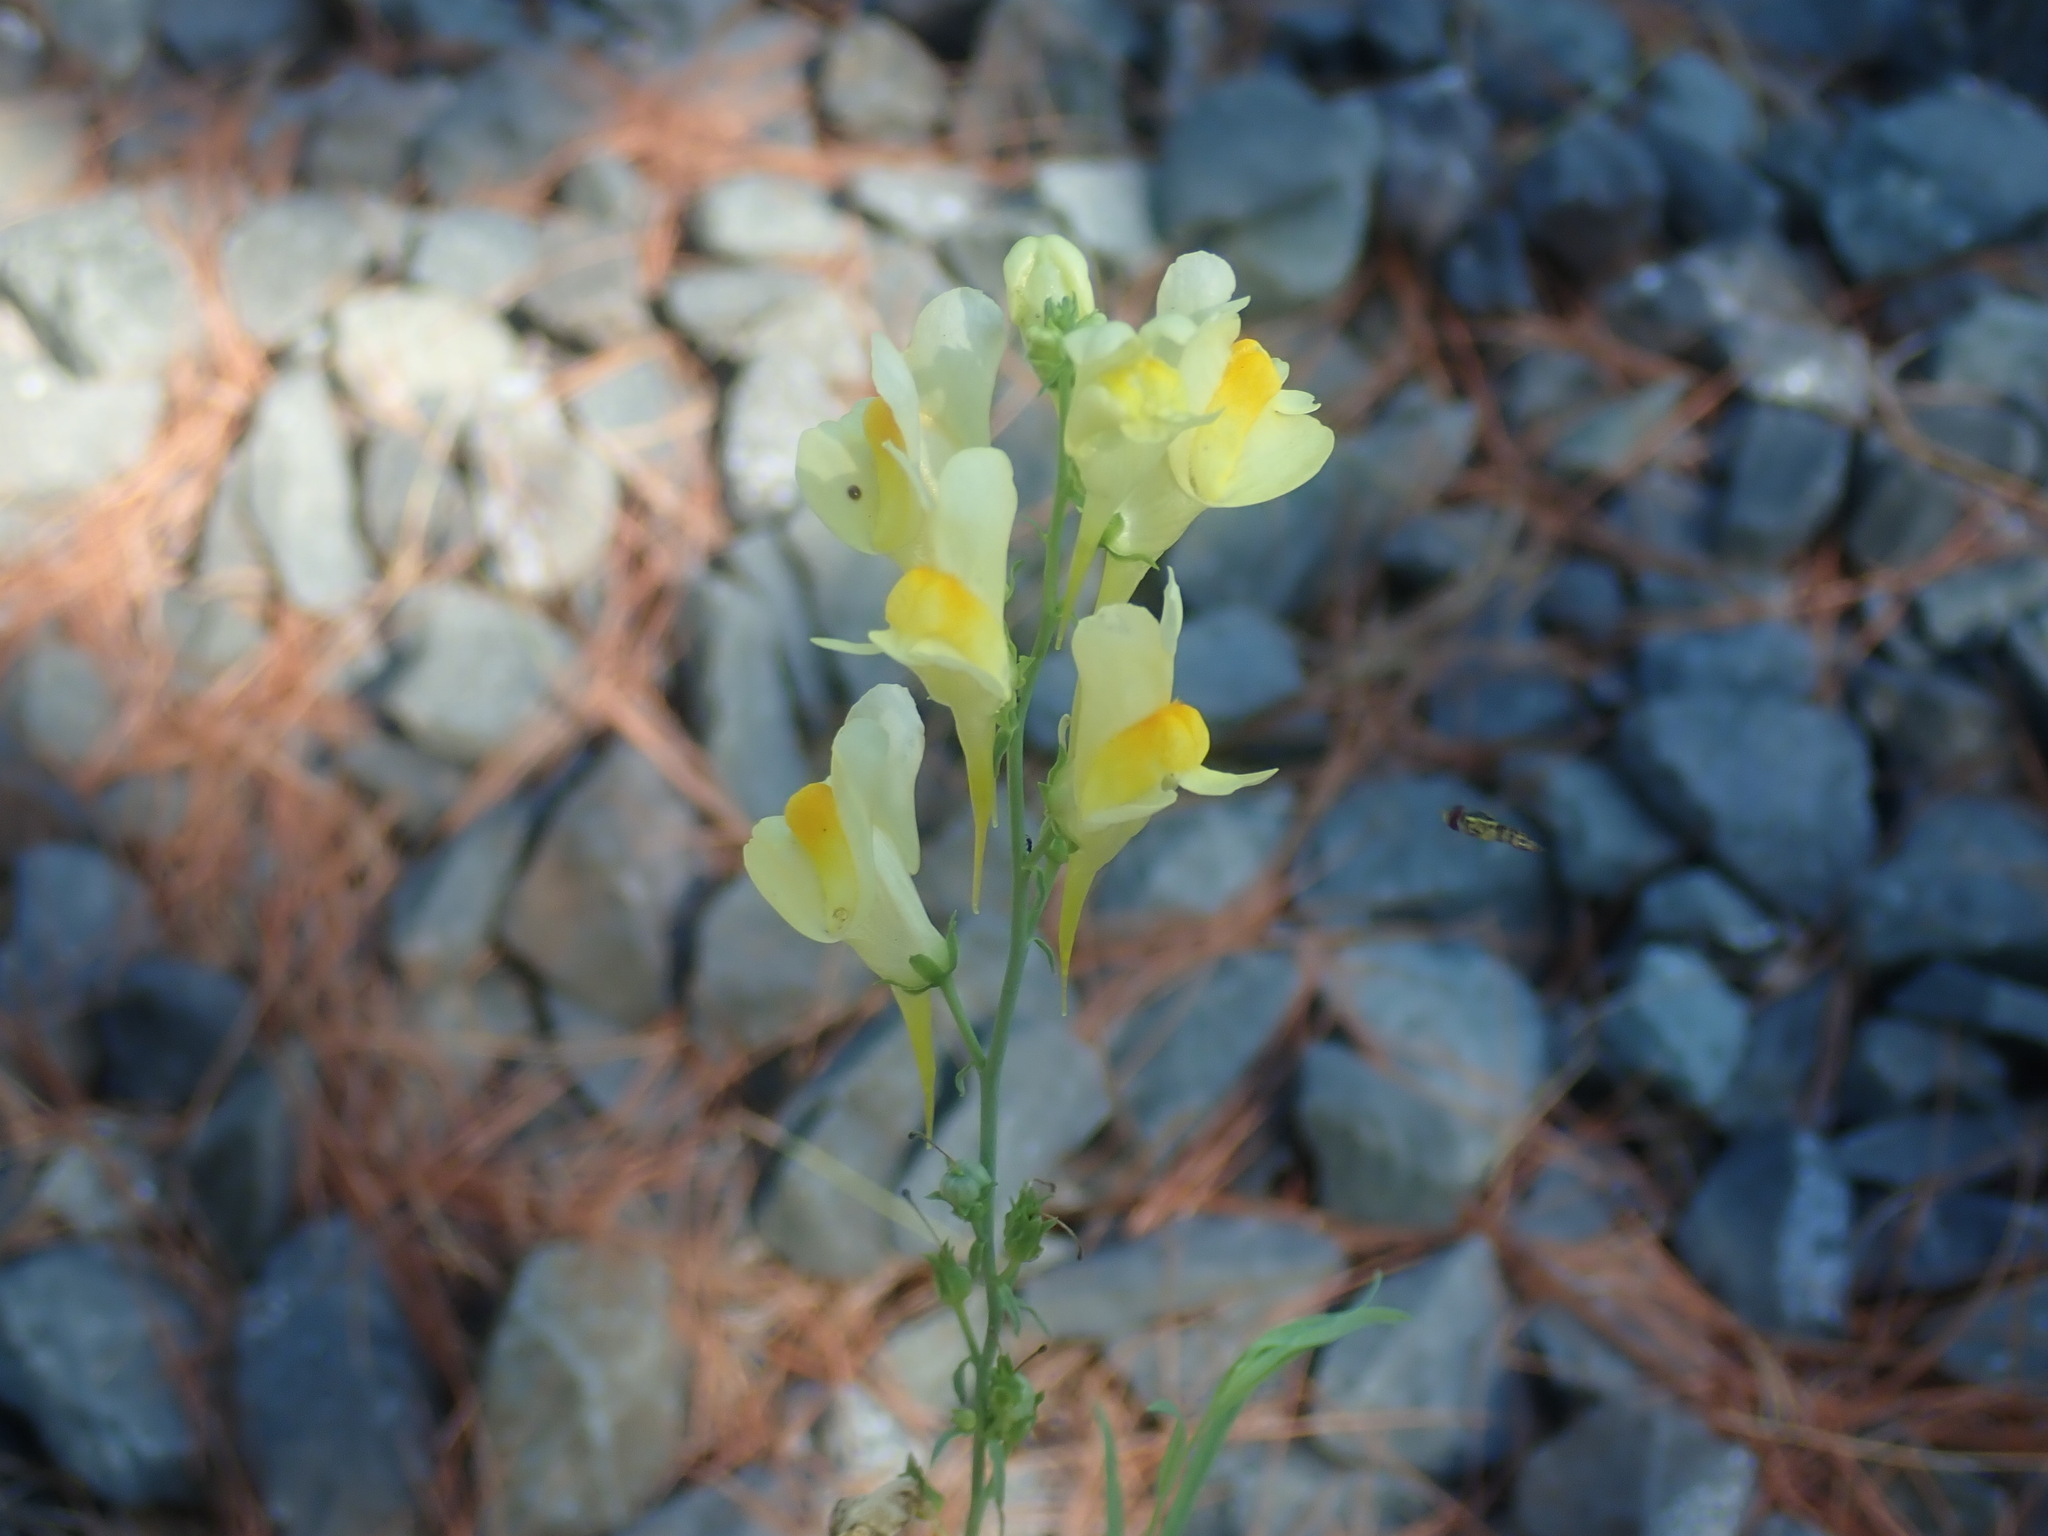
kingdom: Plantae
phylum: Tracheophyta
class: Magnoliopsida
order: Lamiales
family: Plantaginaceae
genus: Linaria
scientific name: Linaria vulgaris
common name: Butter and eggs
